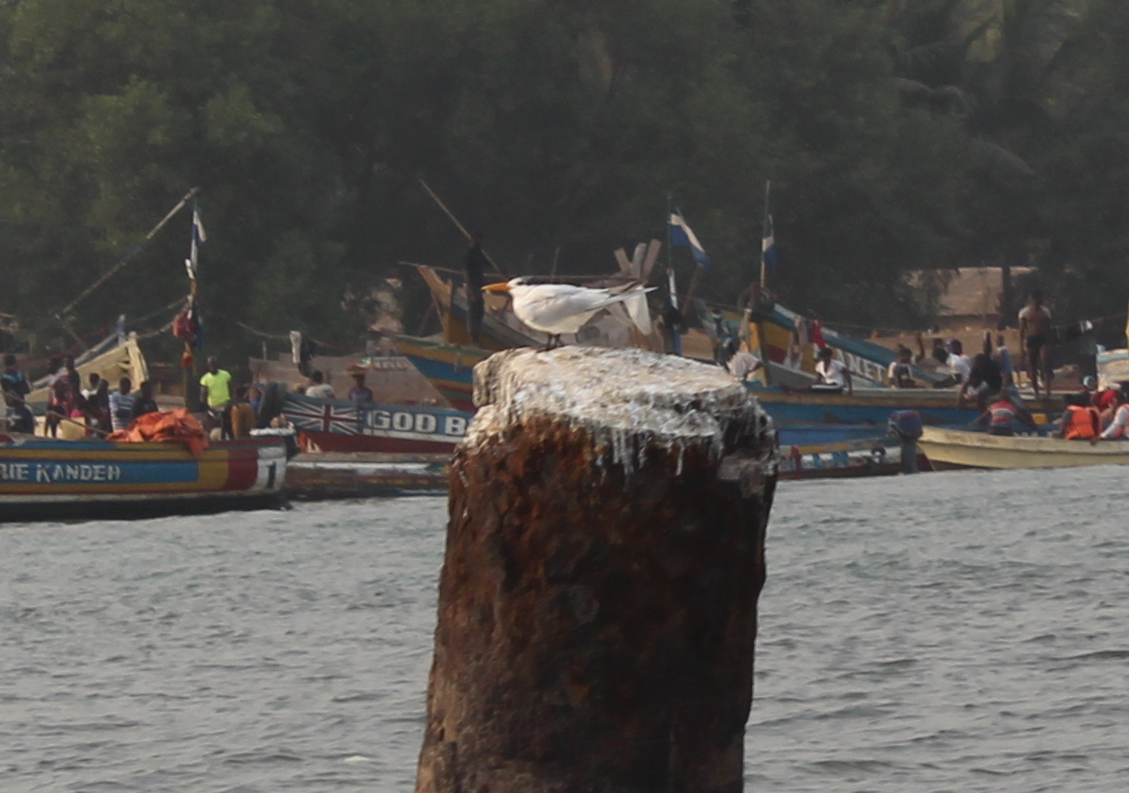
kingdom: Animalia
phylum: Chordata
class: Aves
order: Charadriiformes
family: Laridae
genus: Thalasseus
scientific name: Thalasseus albididorsalis
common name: West african crested tern
